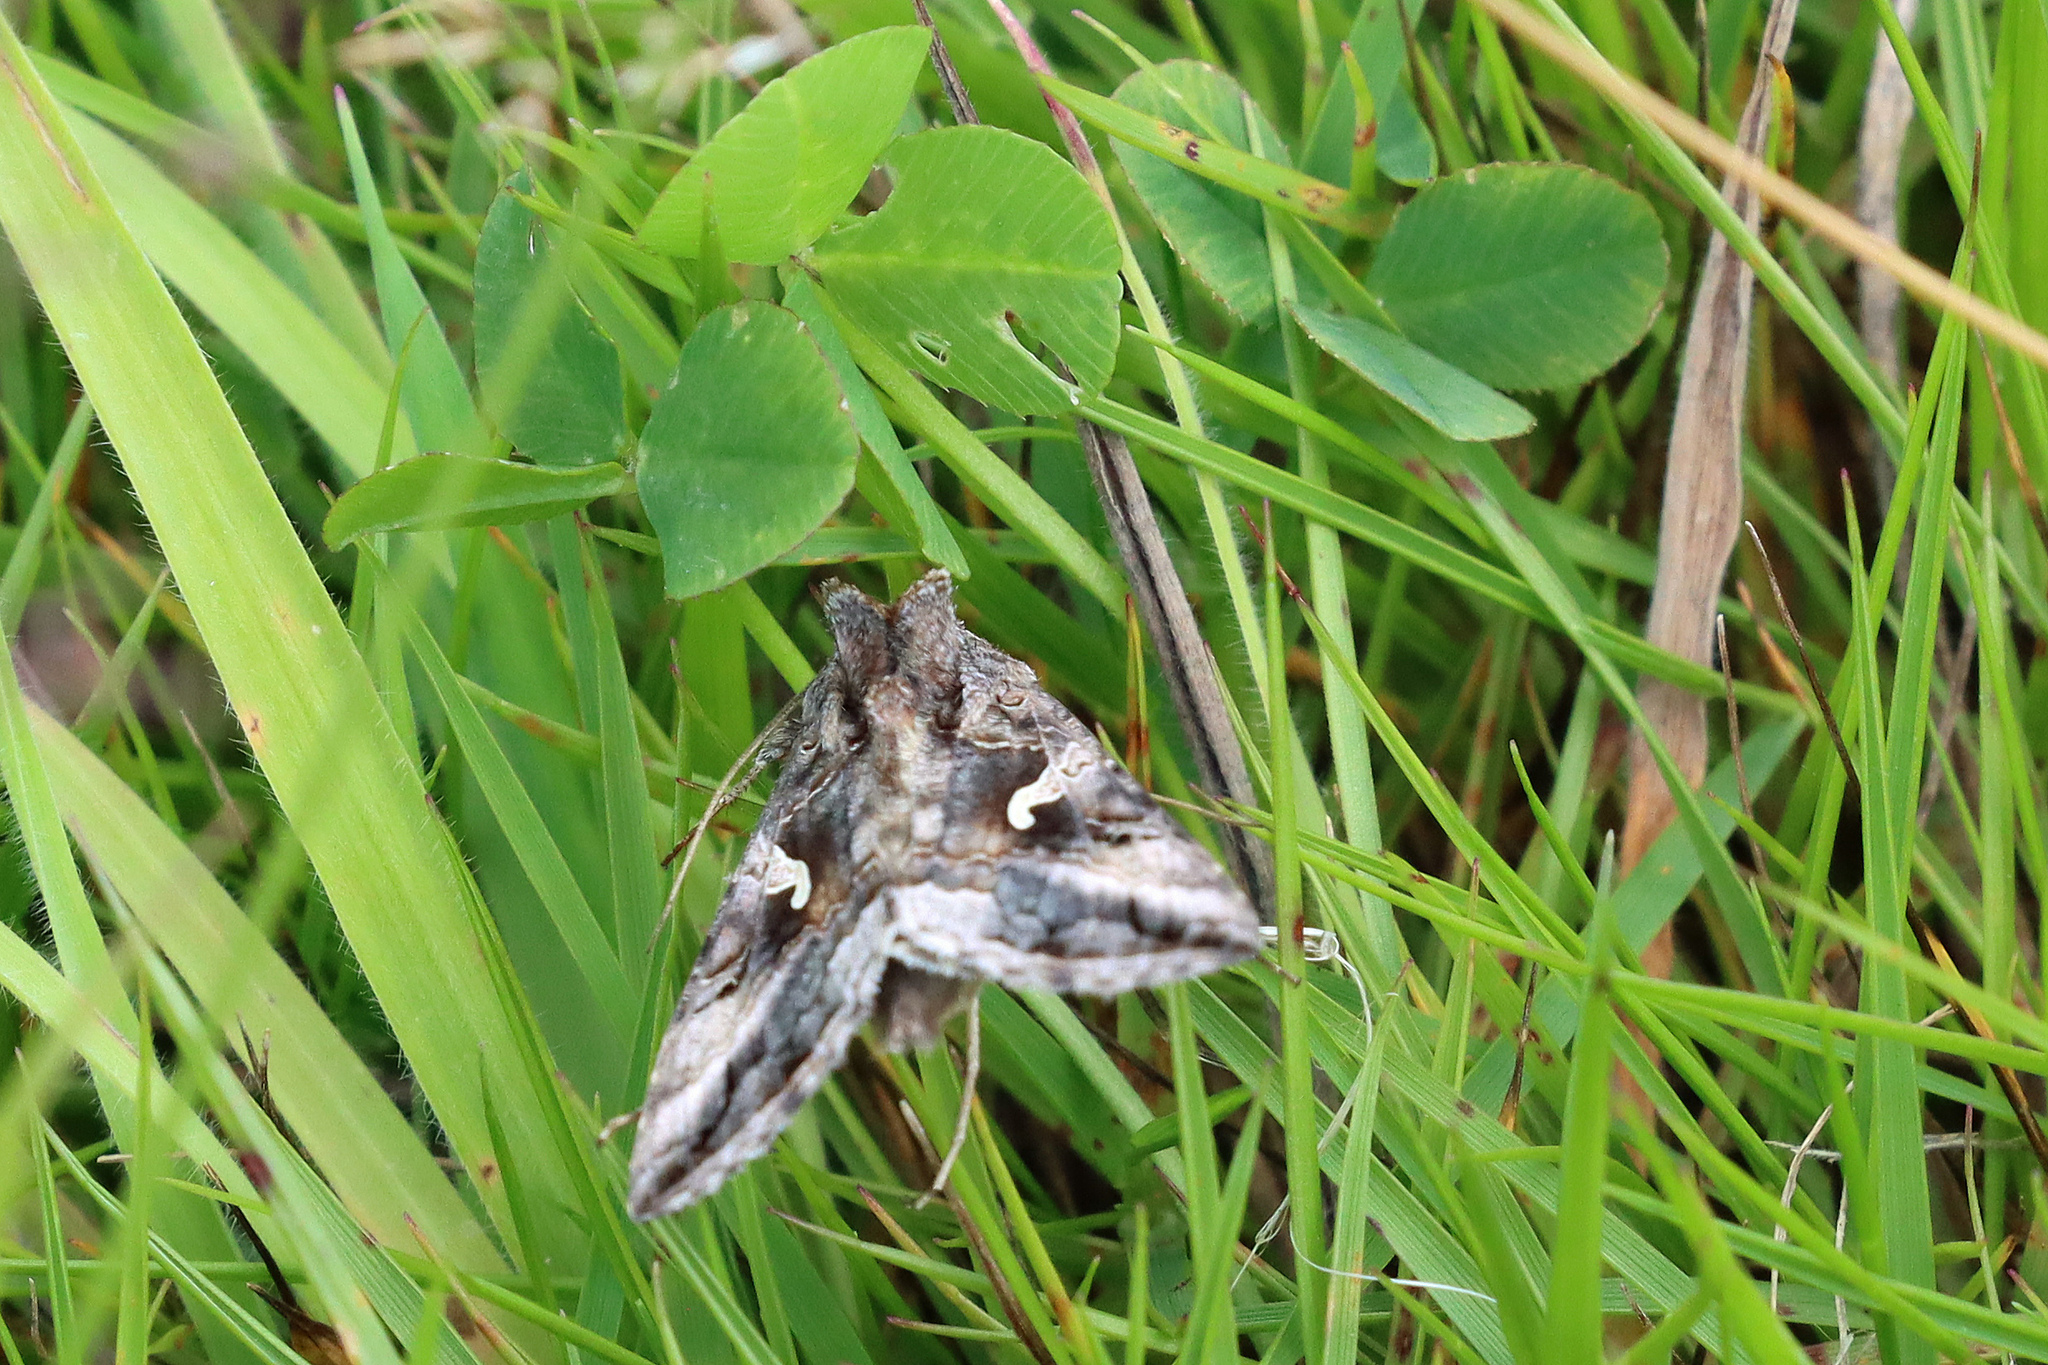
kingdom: Animalia
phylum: Arthropoda
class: Insecta
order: Lepidoptera
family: Noctuidae
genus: Autographa
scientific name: Autographa gamma
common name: Silver y
